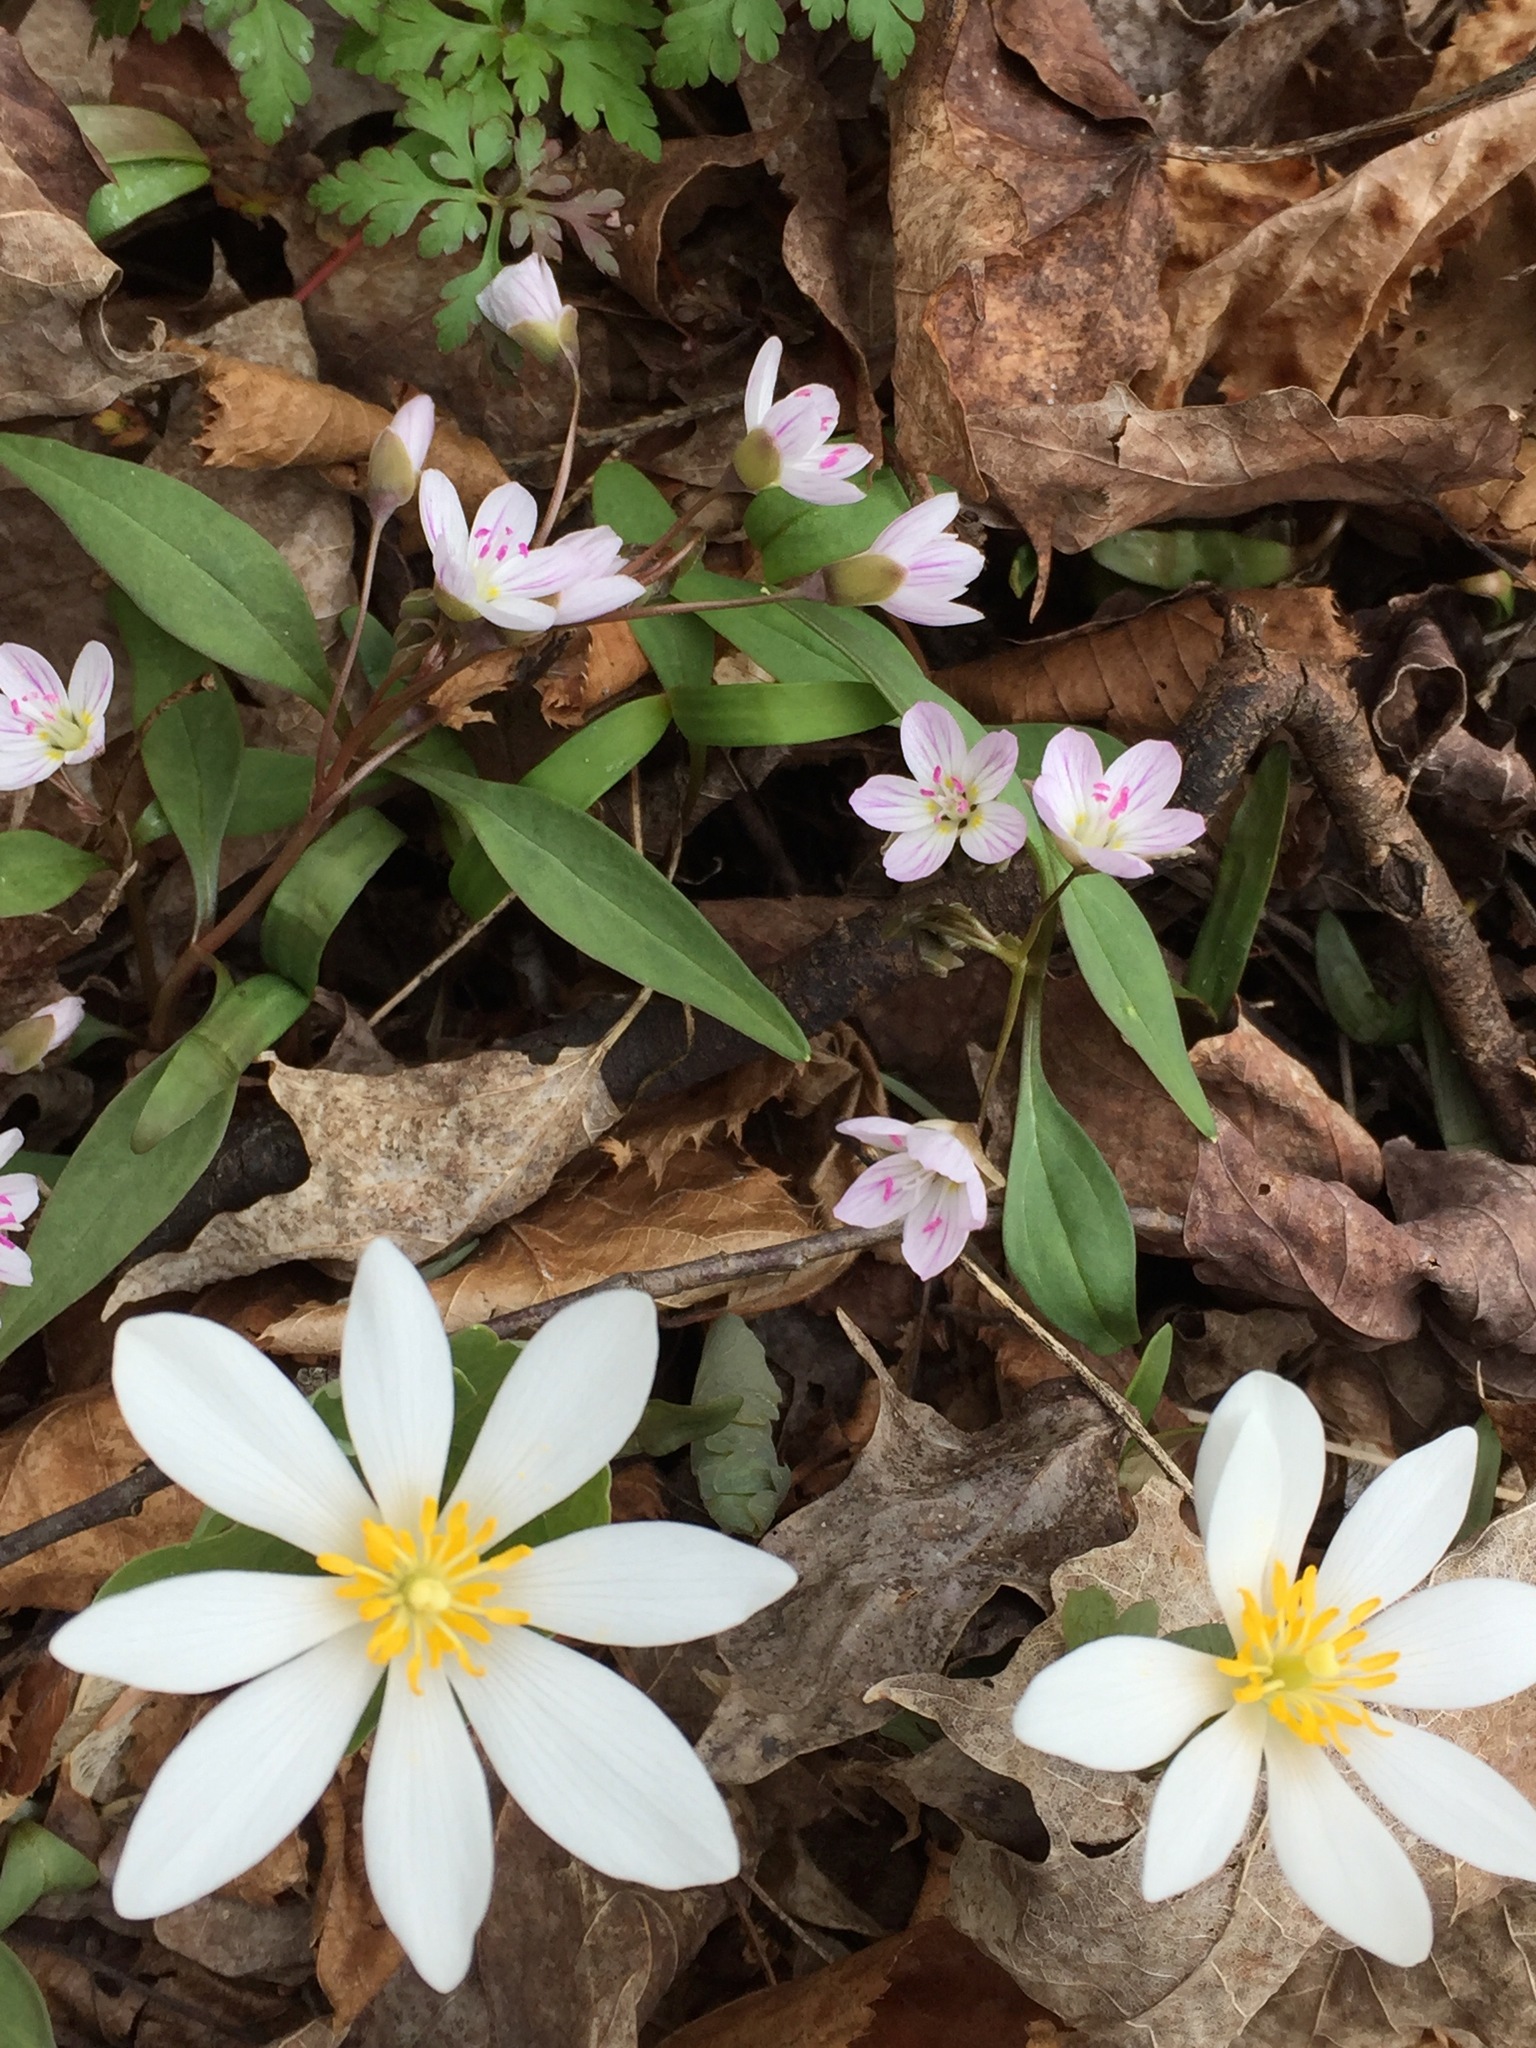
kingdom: Plantae
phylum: Tracheophyta
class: Magnoliopsida
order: Ranunculales
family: Papaveraceae
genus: Sanguinaria
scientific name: Sanguinaria canadensis
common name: Bloodroot
